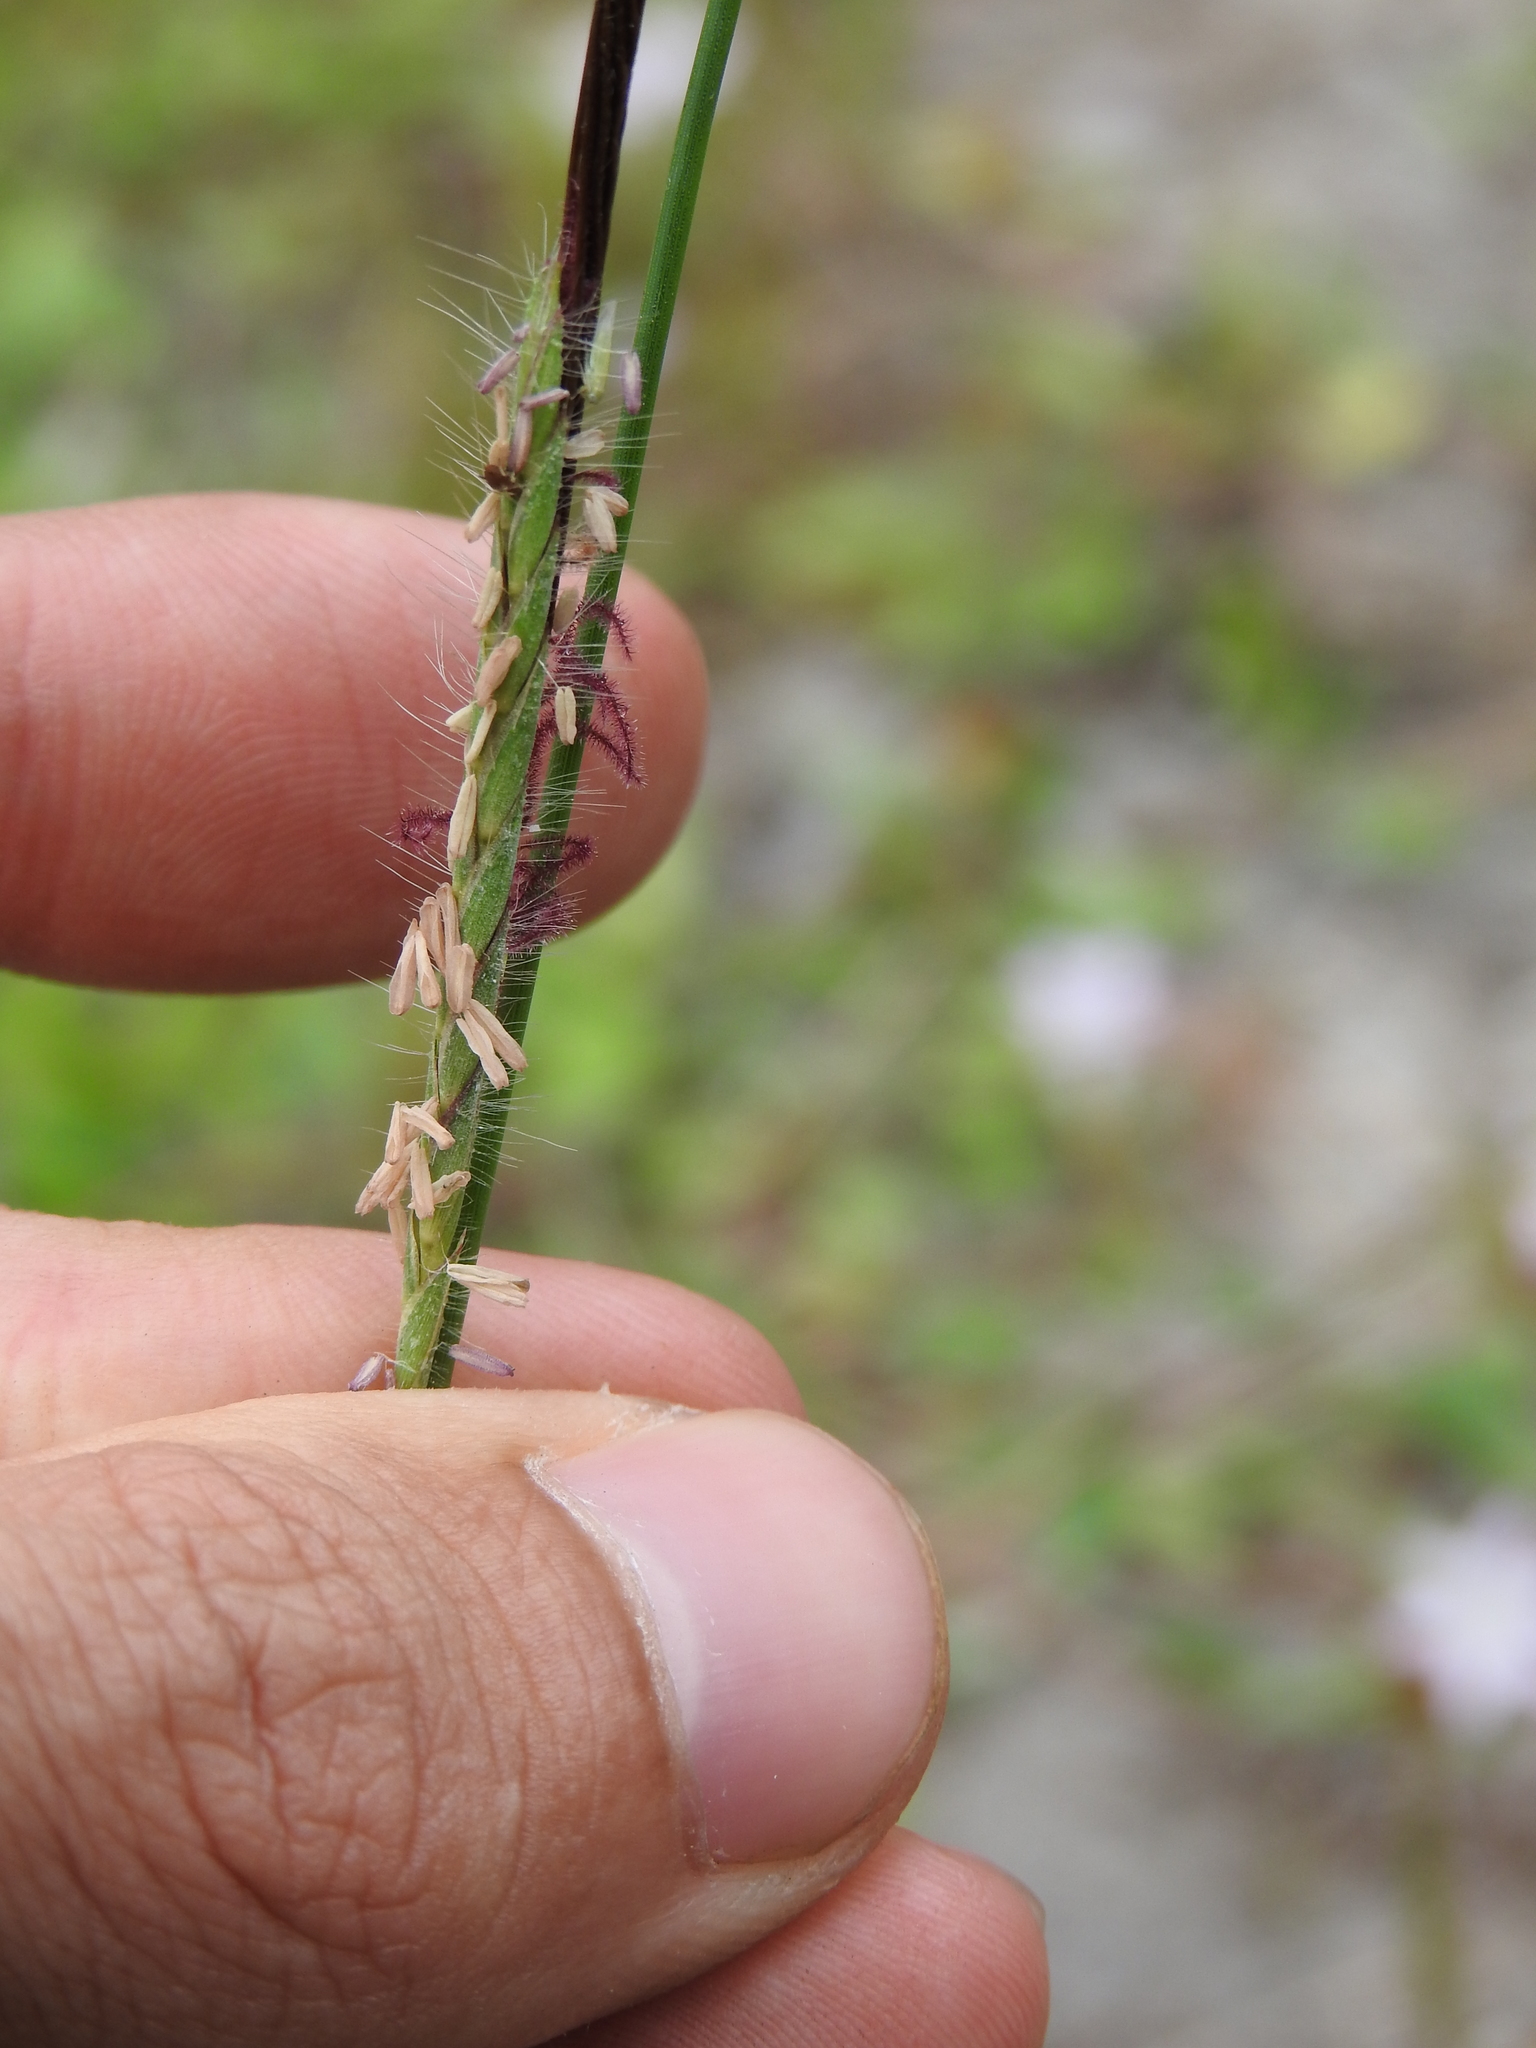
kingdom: Plantae
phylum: Tracheophyta
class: Liliopsida
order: Poales
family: Poaceae
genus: Heteropogon
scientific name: Heteropogon contortus
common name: Tanglehead
